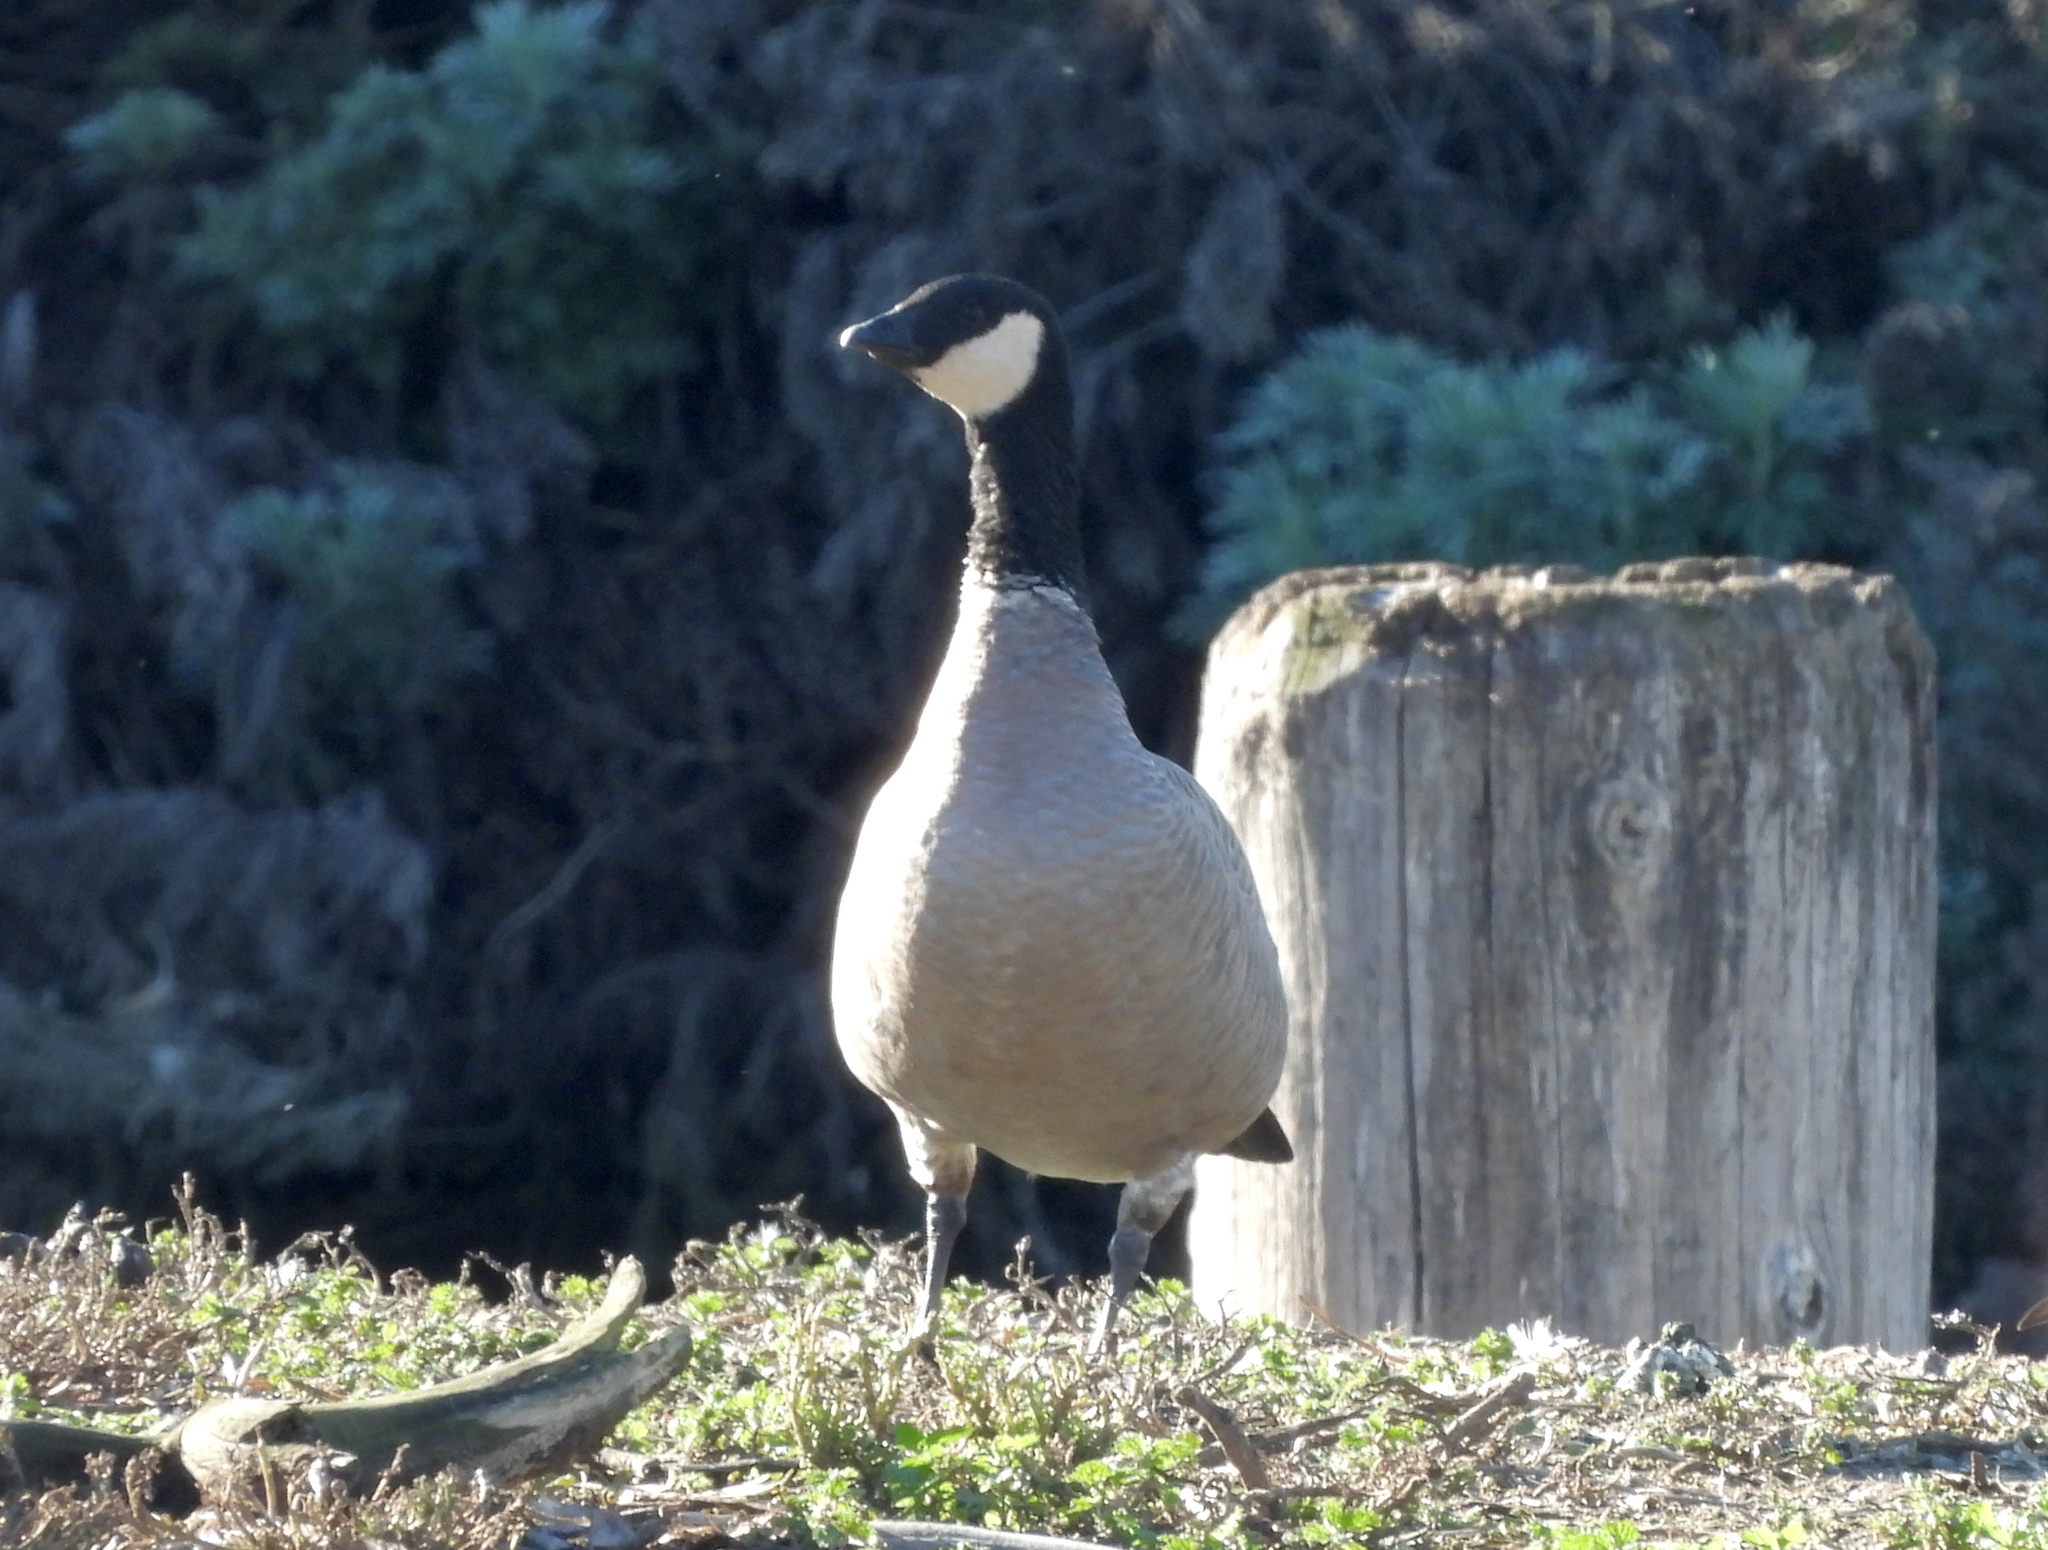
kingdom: Animalia
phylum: Chordata
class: Aves
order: Anseriformes
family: Anatidae
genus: Branta
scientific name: Branta hutchinsii
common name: Cackling goose
